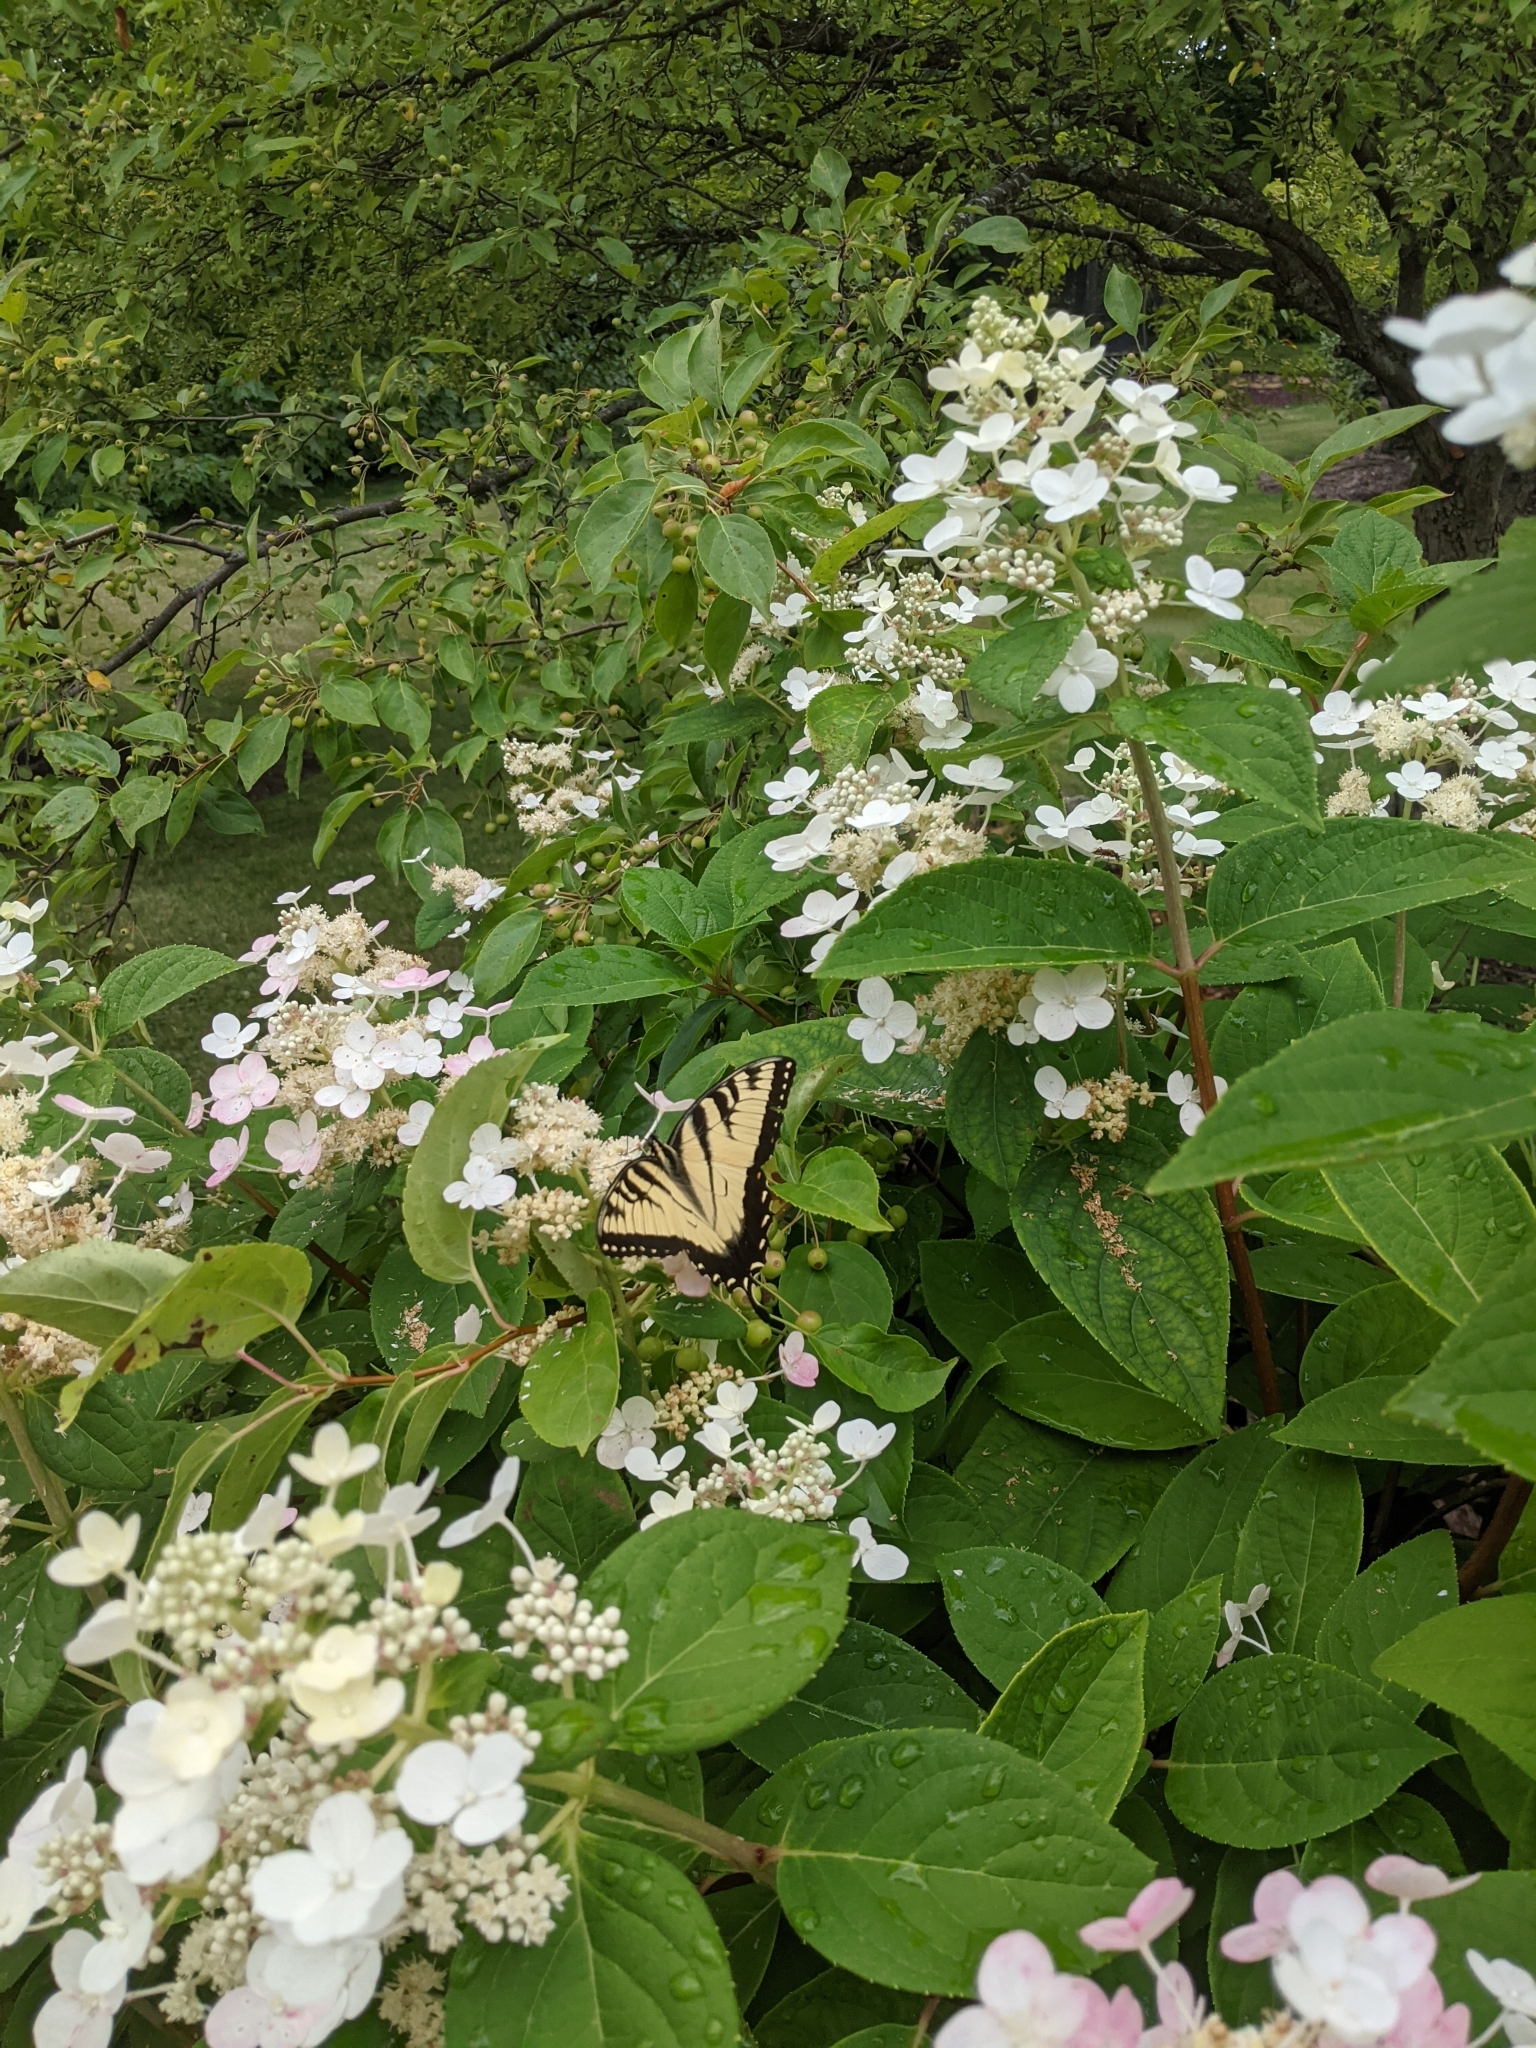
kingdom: Animalia
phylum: Arthropoda
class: Insecta
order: Lepidoptera
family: Papilionidae
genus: Papilio
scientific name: Papilio glaucus
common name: Tiger swallowtail
